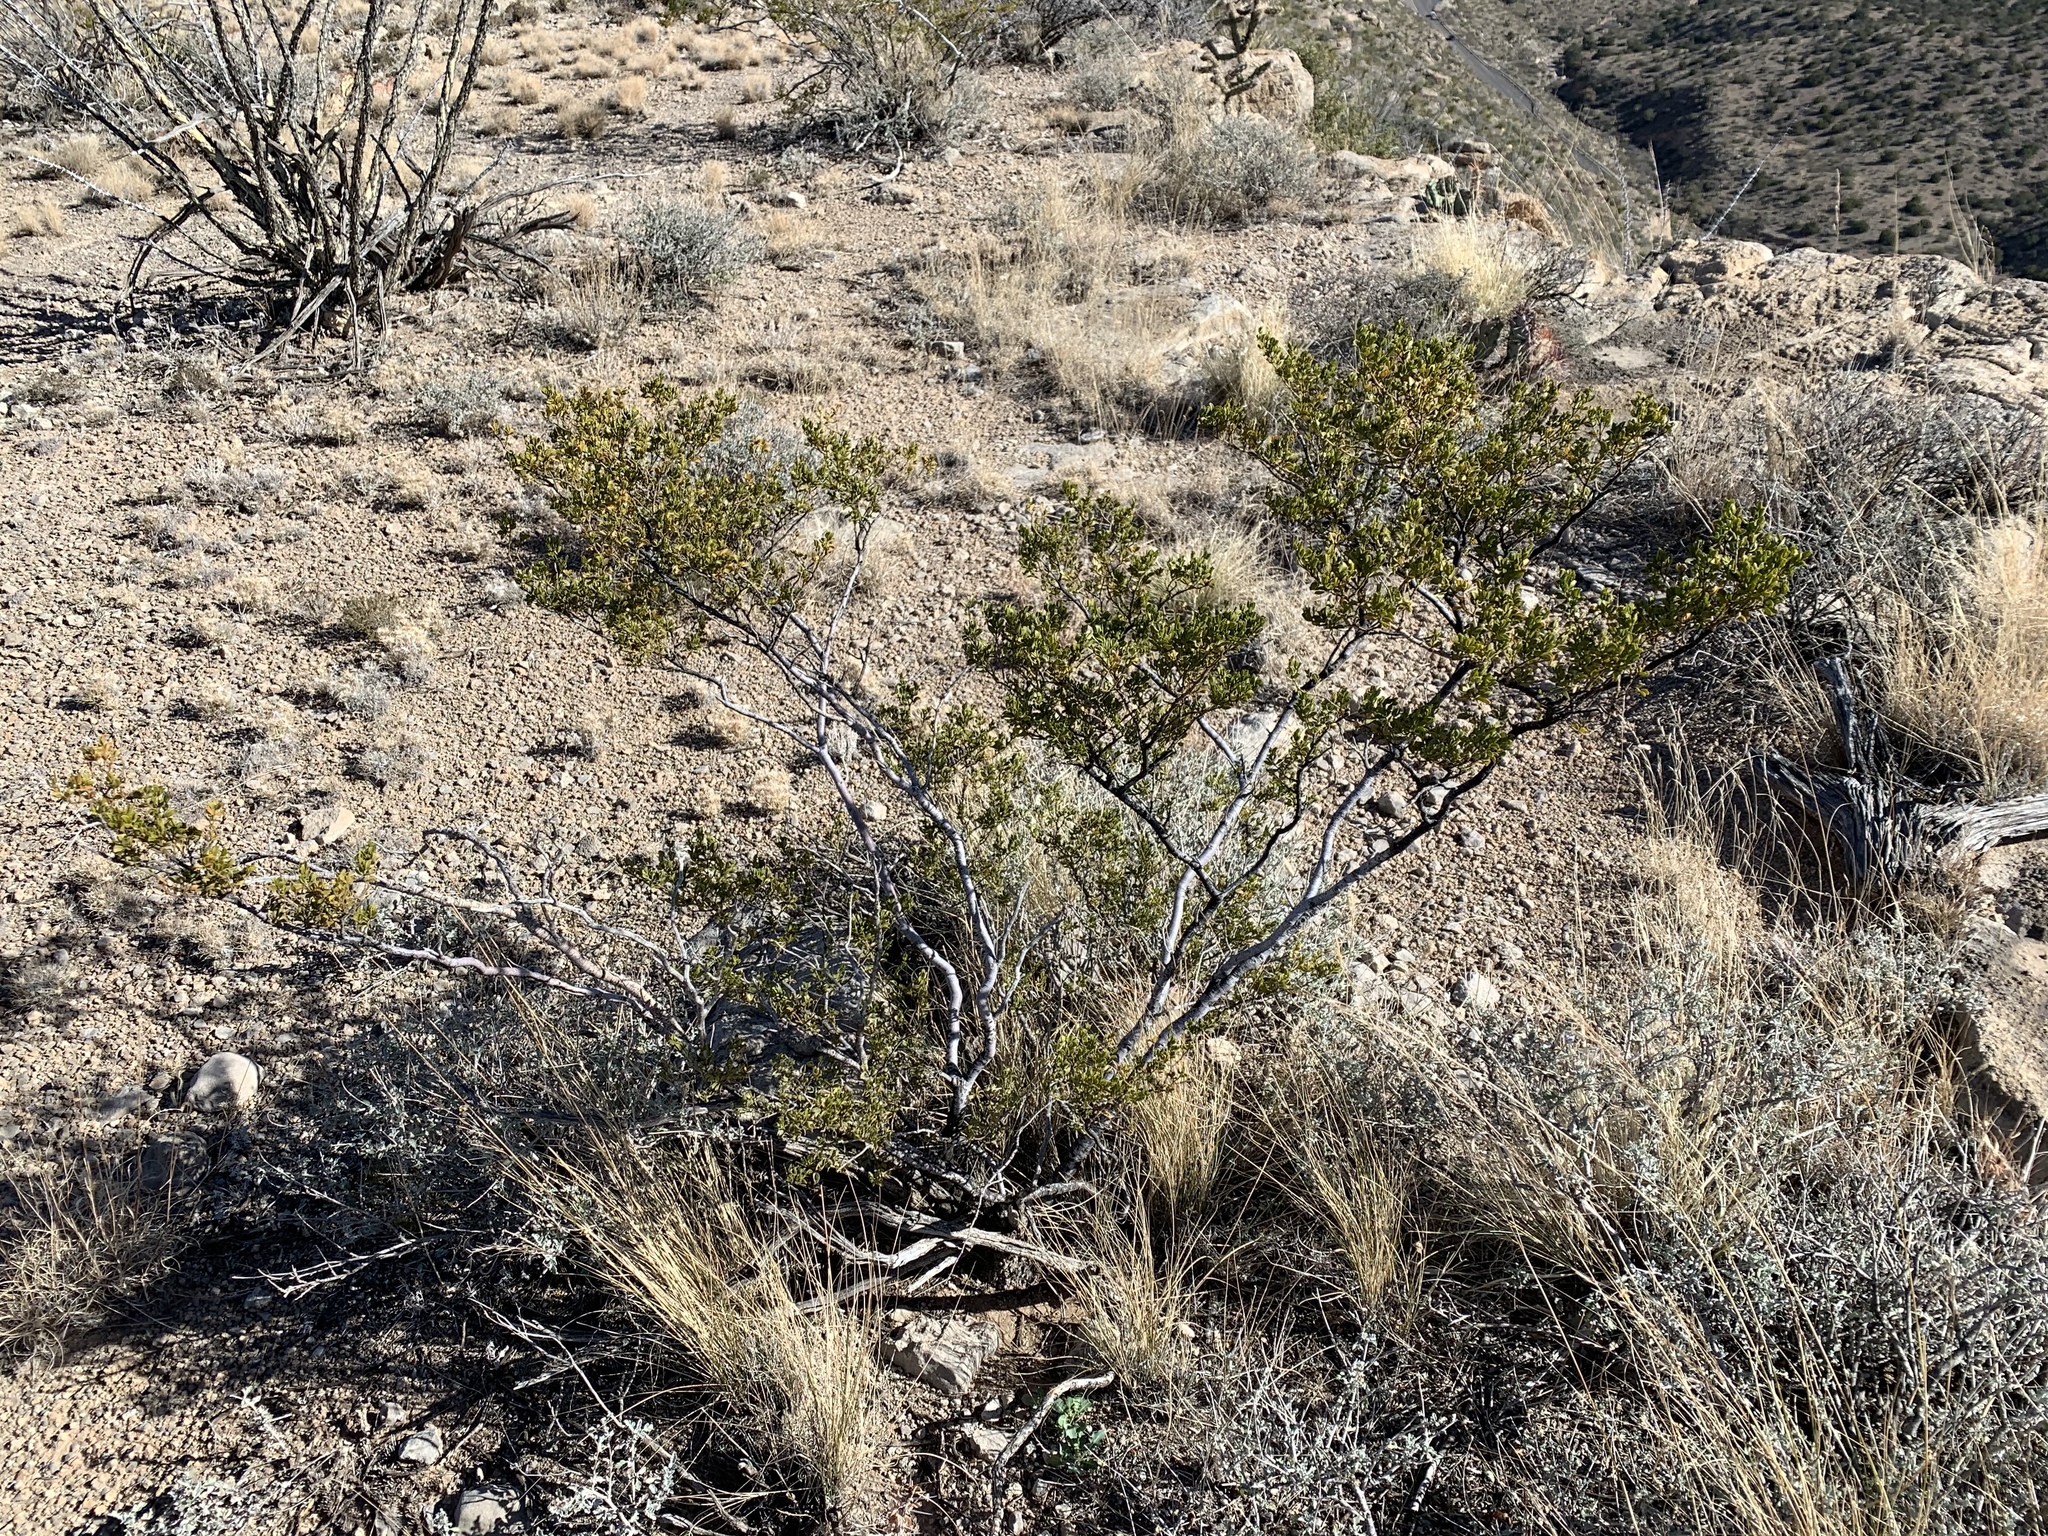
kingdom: Plantae
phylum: Tracheophyta
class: Magnoliopsida
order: Zygophyllales
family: Zygophyllaceae
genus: Larrea
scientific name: Larrea tridentata
